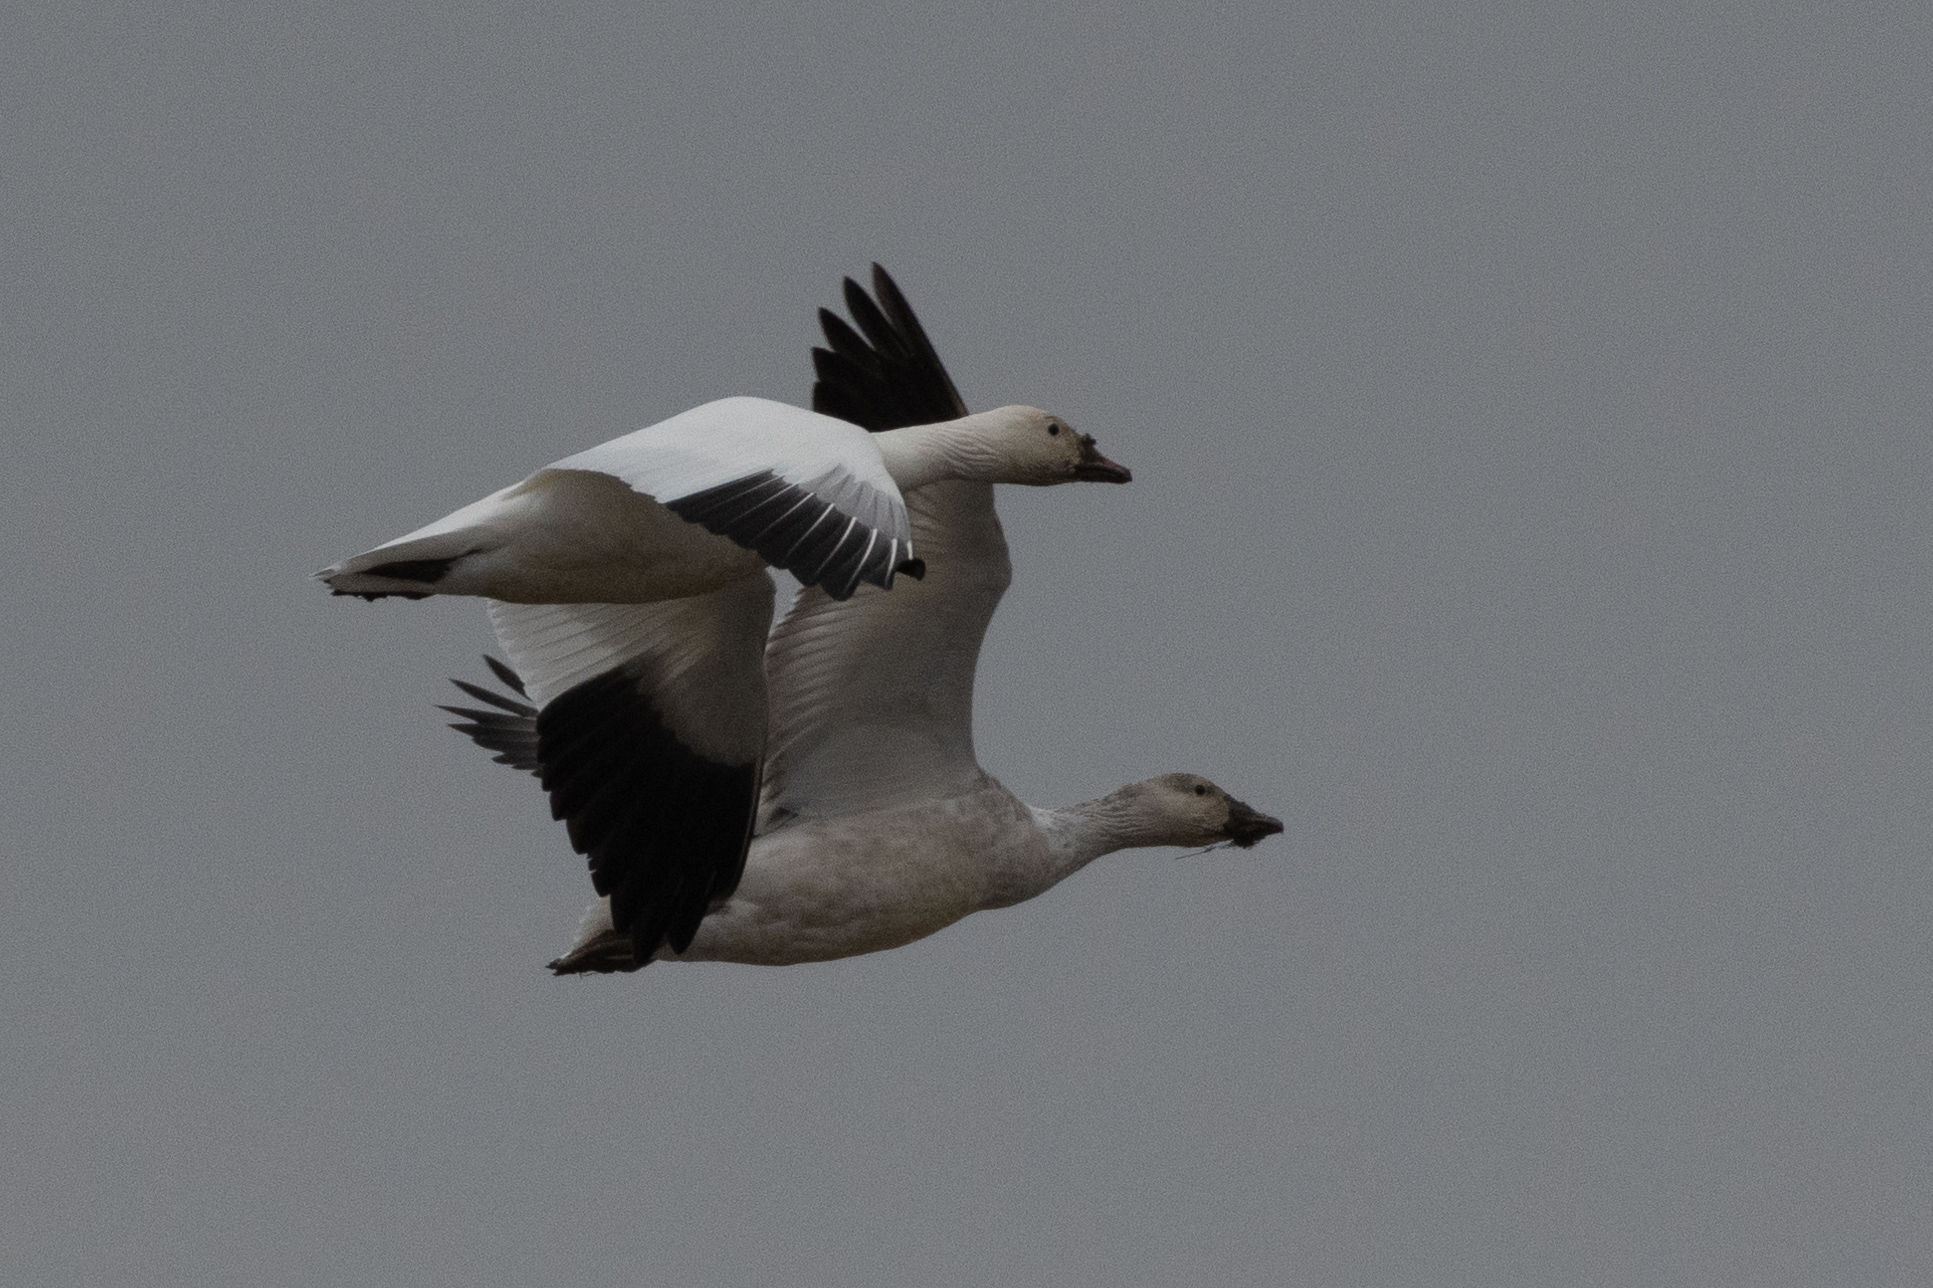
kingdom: Animalia
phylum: Chordata
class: Aves
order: Anseriformes
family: Anatidae
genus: Anser
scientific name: Anser caerulescens
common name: Snow goose
